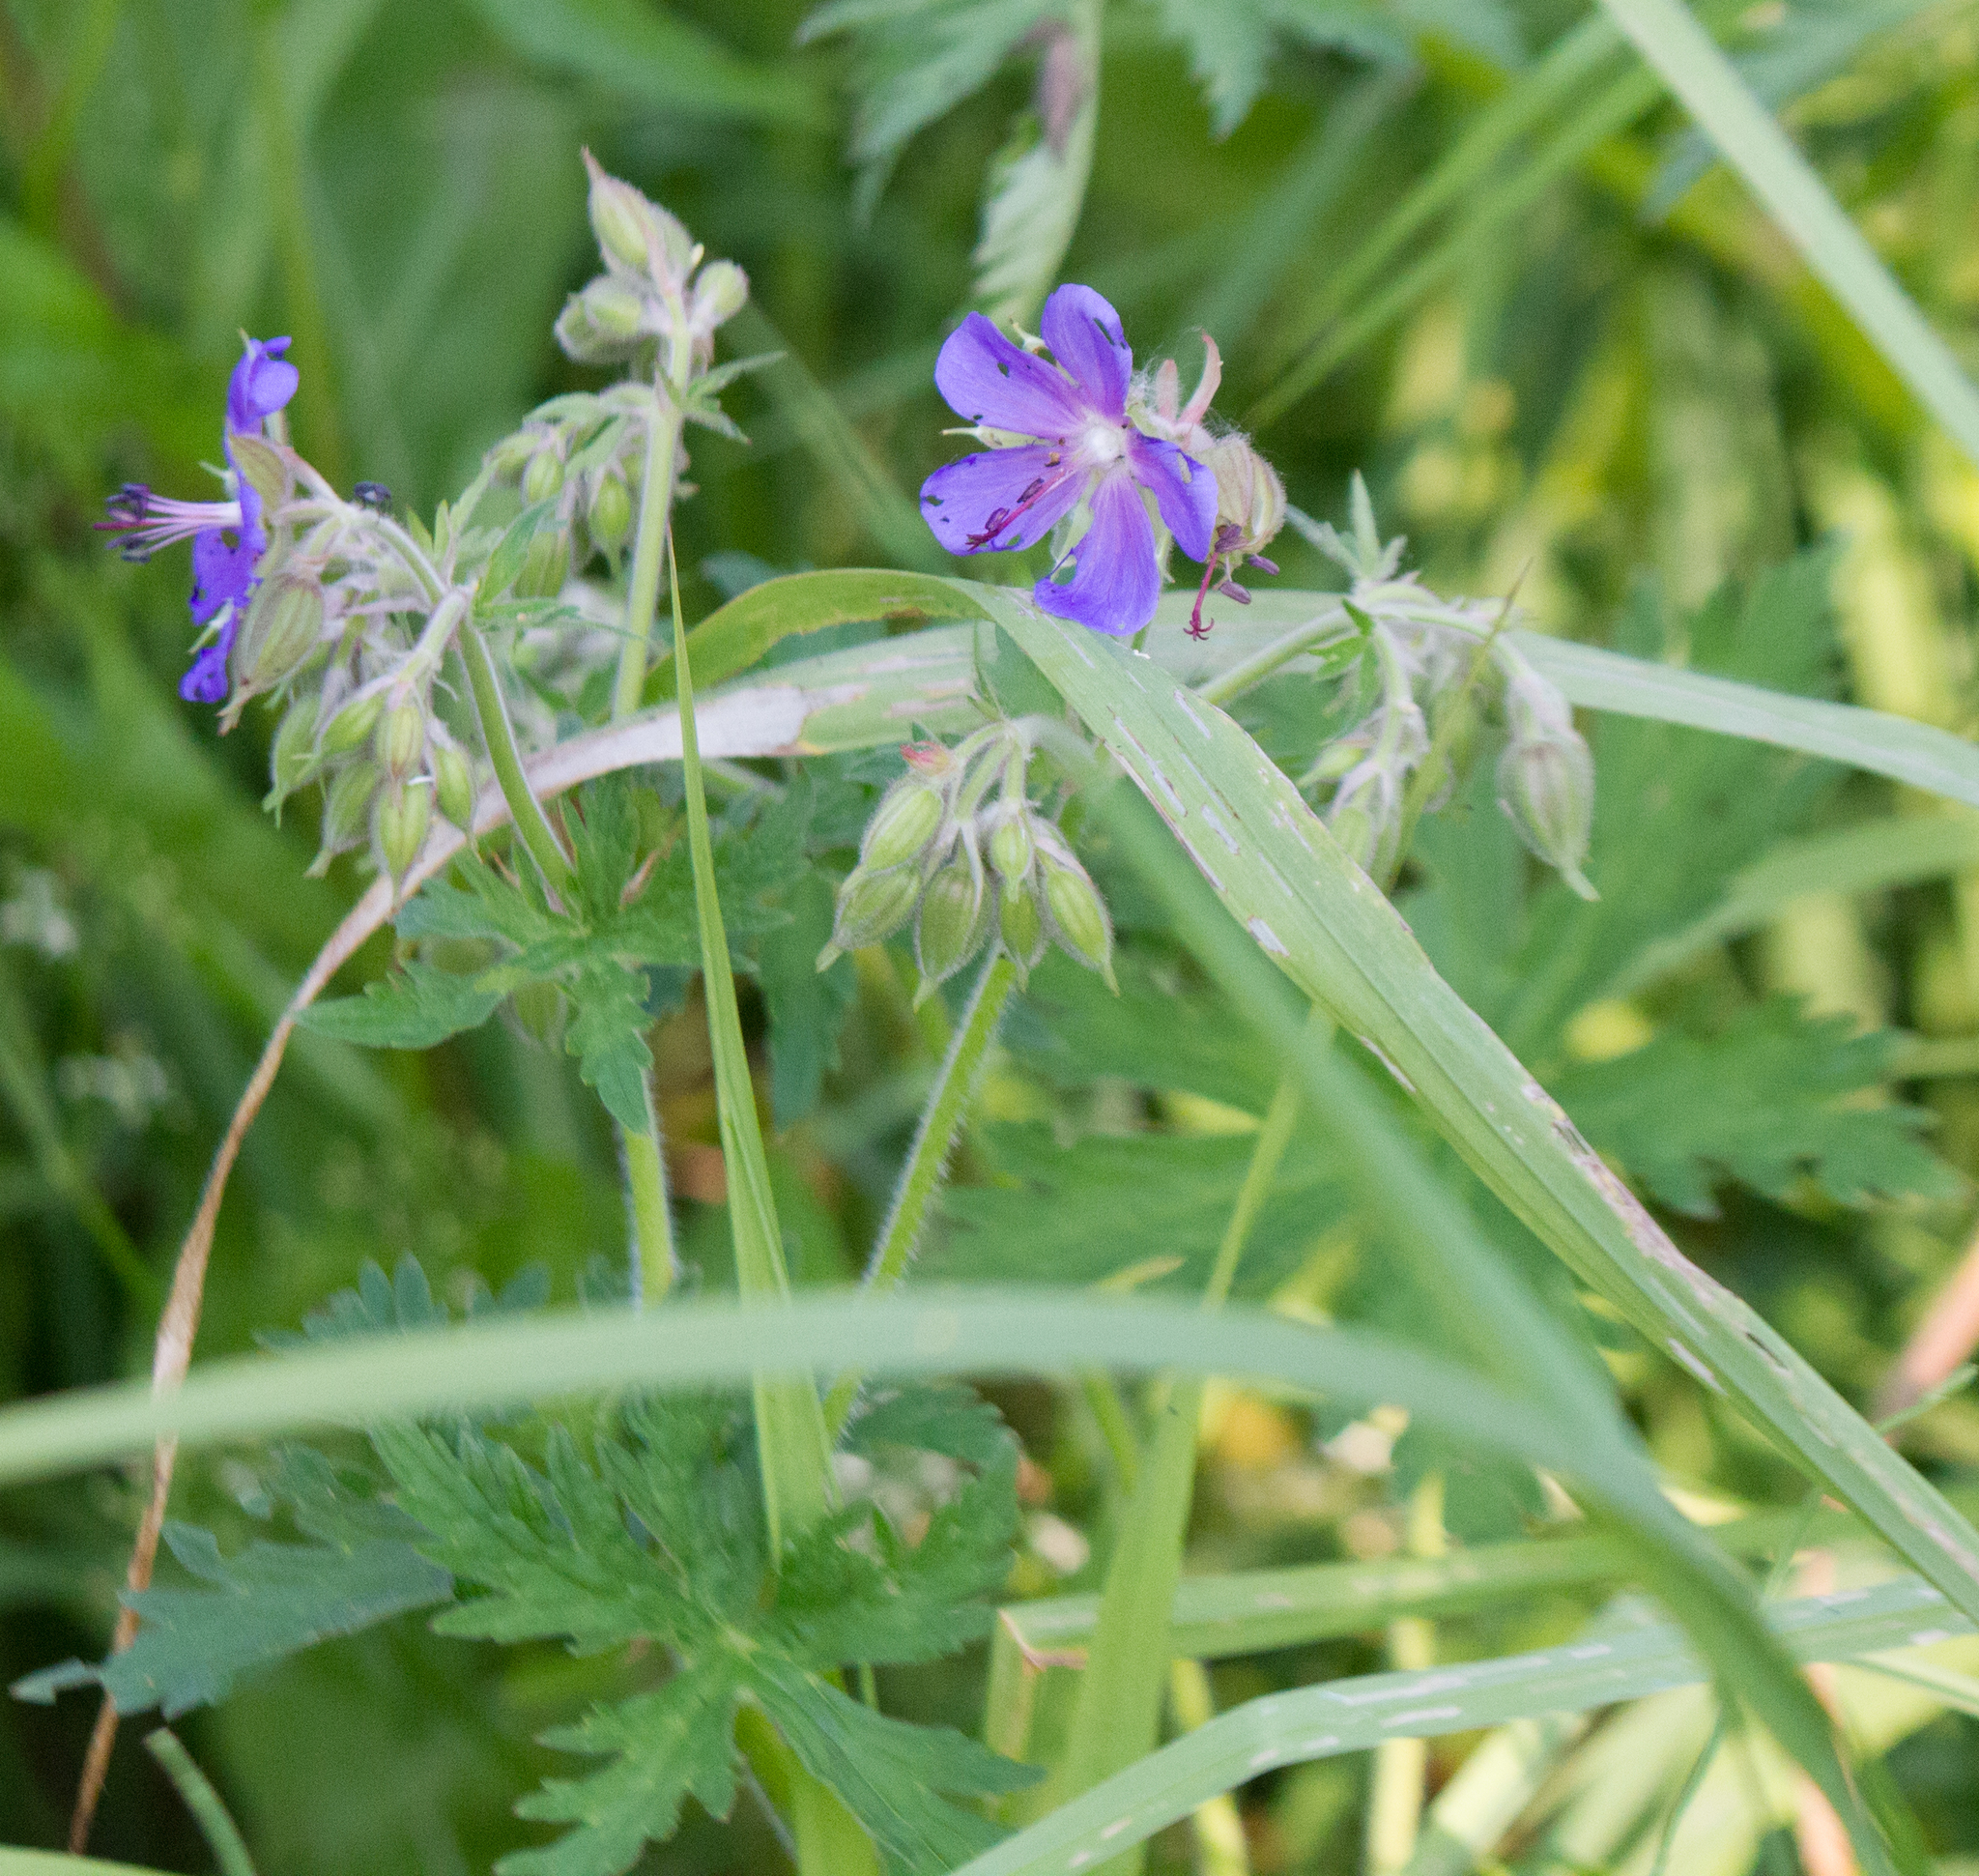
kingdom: Plantae
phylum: Tracheophyta
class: Magnoliopsida
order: Geraniales
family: Geraniaceae
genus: Geranium
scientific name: Geranium pratense
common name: Meadow crane's-bill
